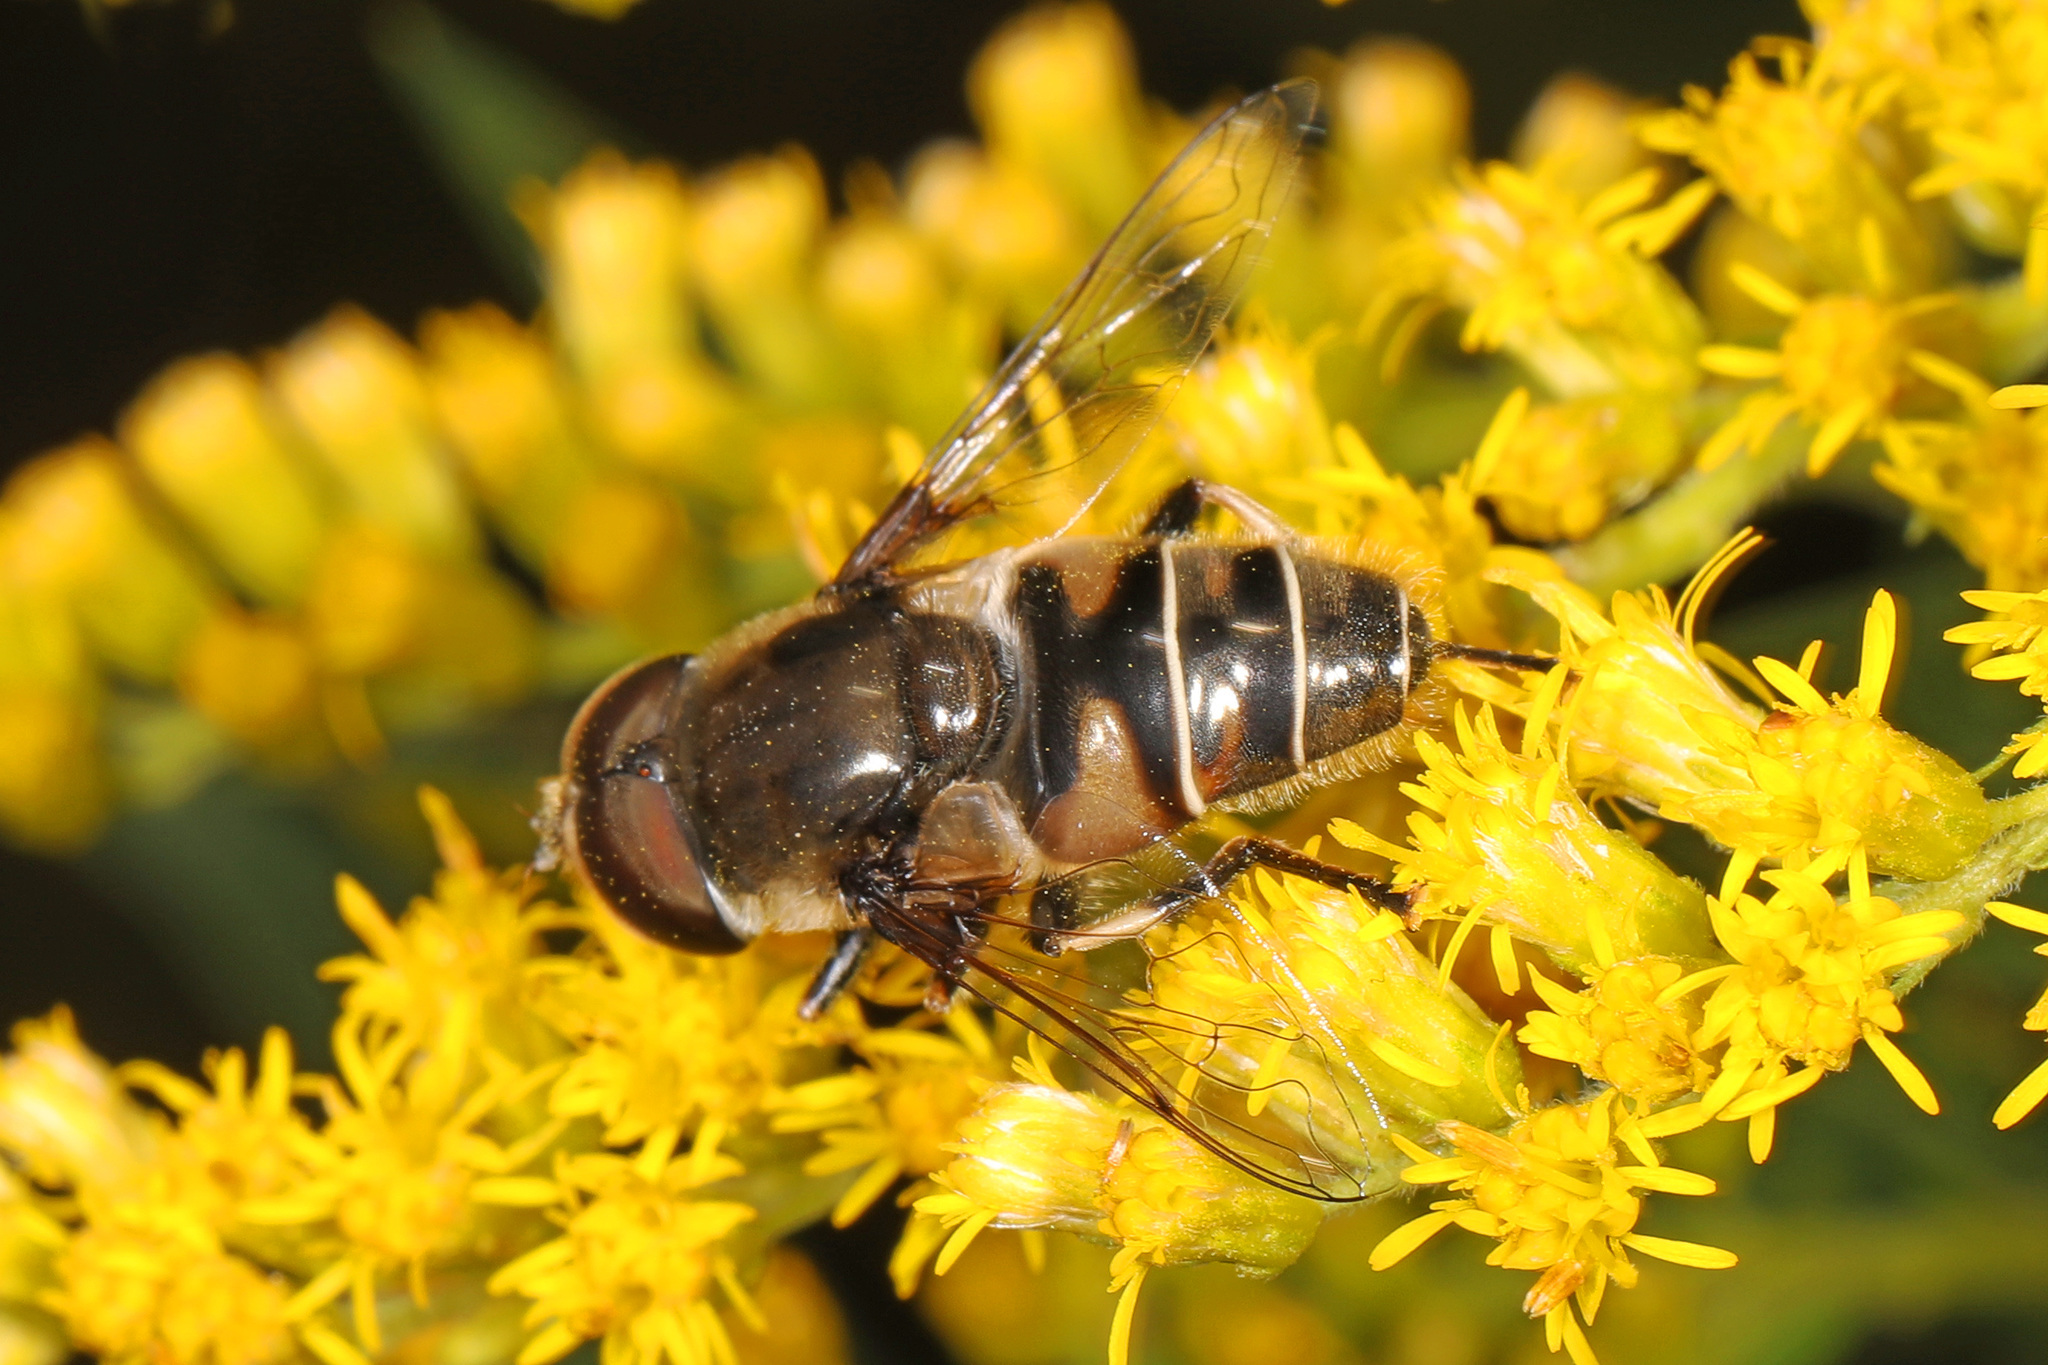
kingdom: Animalia
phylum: Arthropoda
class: Insecta
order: Diptera
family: Syrphidae
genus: Eristalis
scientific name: Eristalis dimidiata
